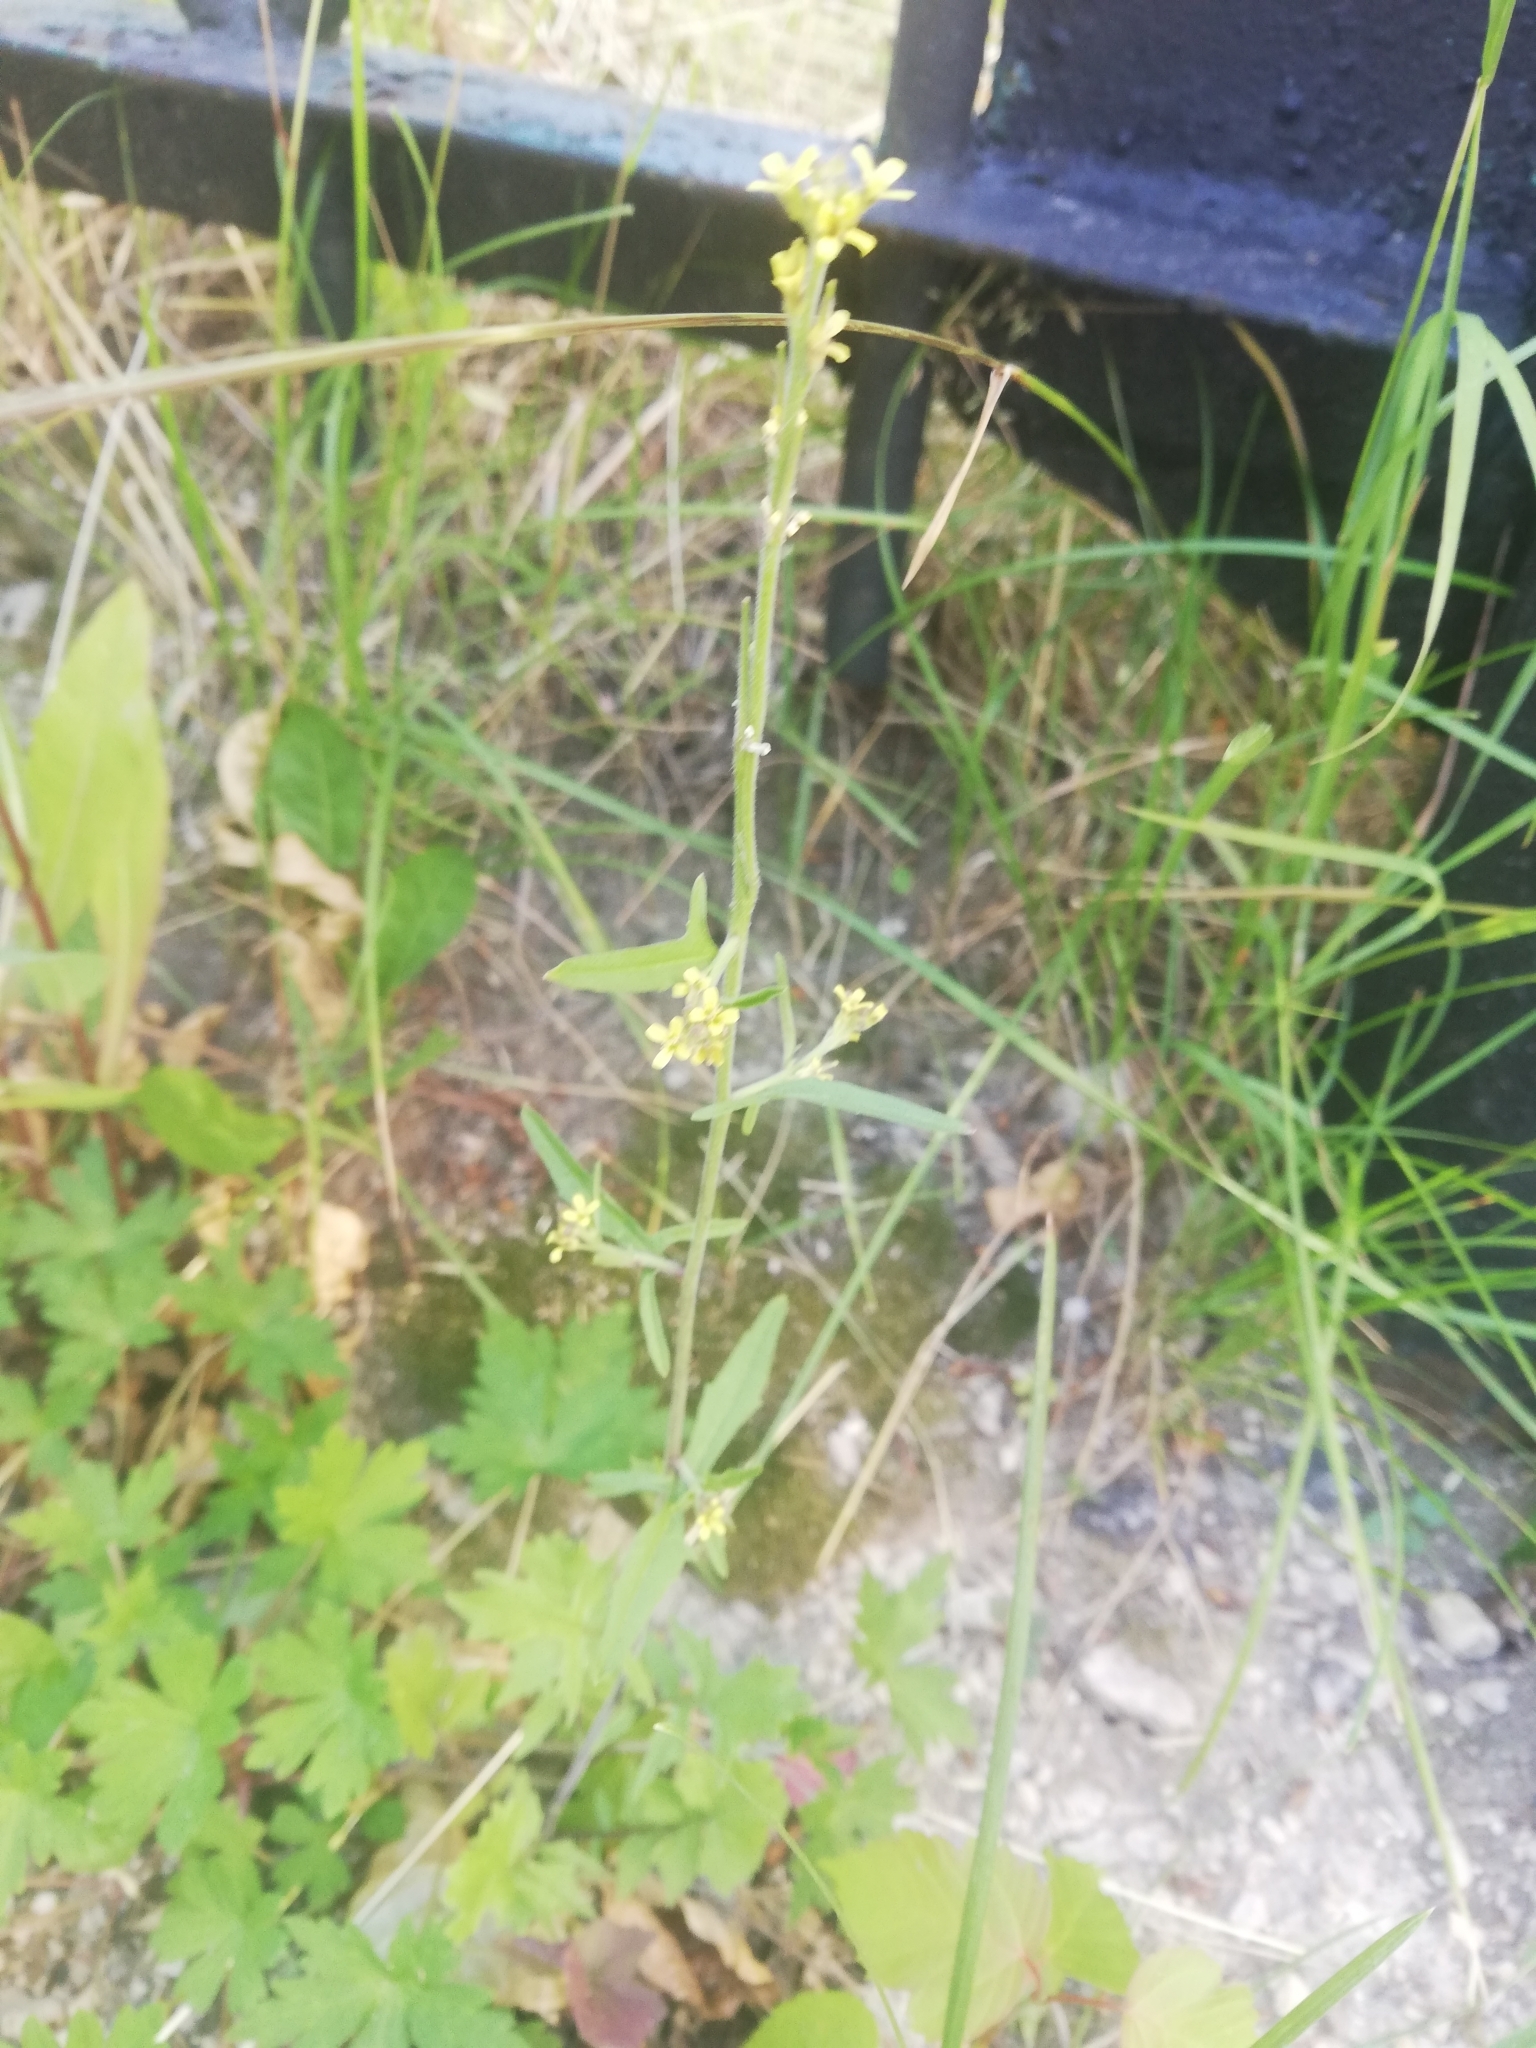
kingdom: Plantae
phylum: Tracheophyta
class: Magnoliopsida
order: Brassicales
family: Brassicaceae
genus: Sisymbrium
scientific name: Sisymbrium officinale
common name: Hedge mustard
